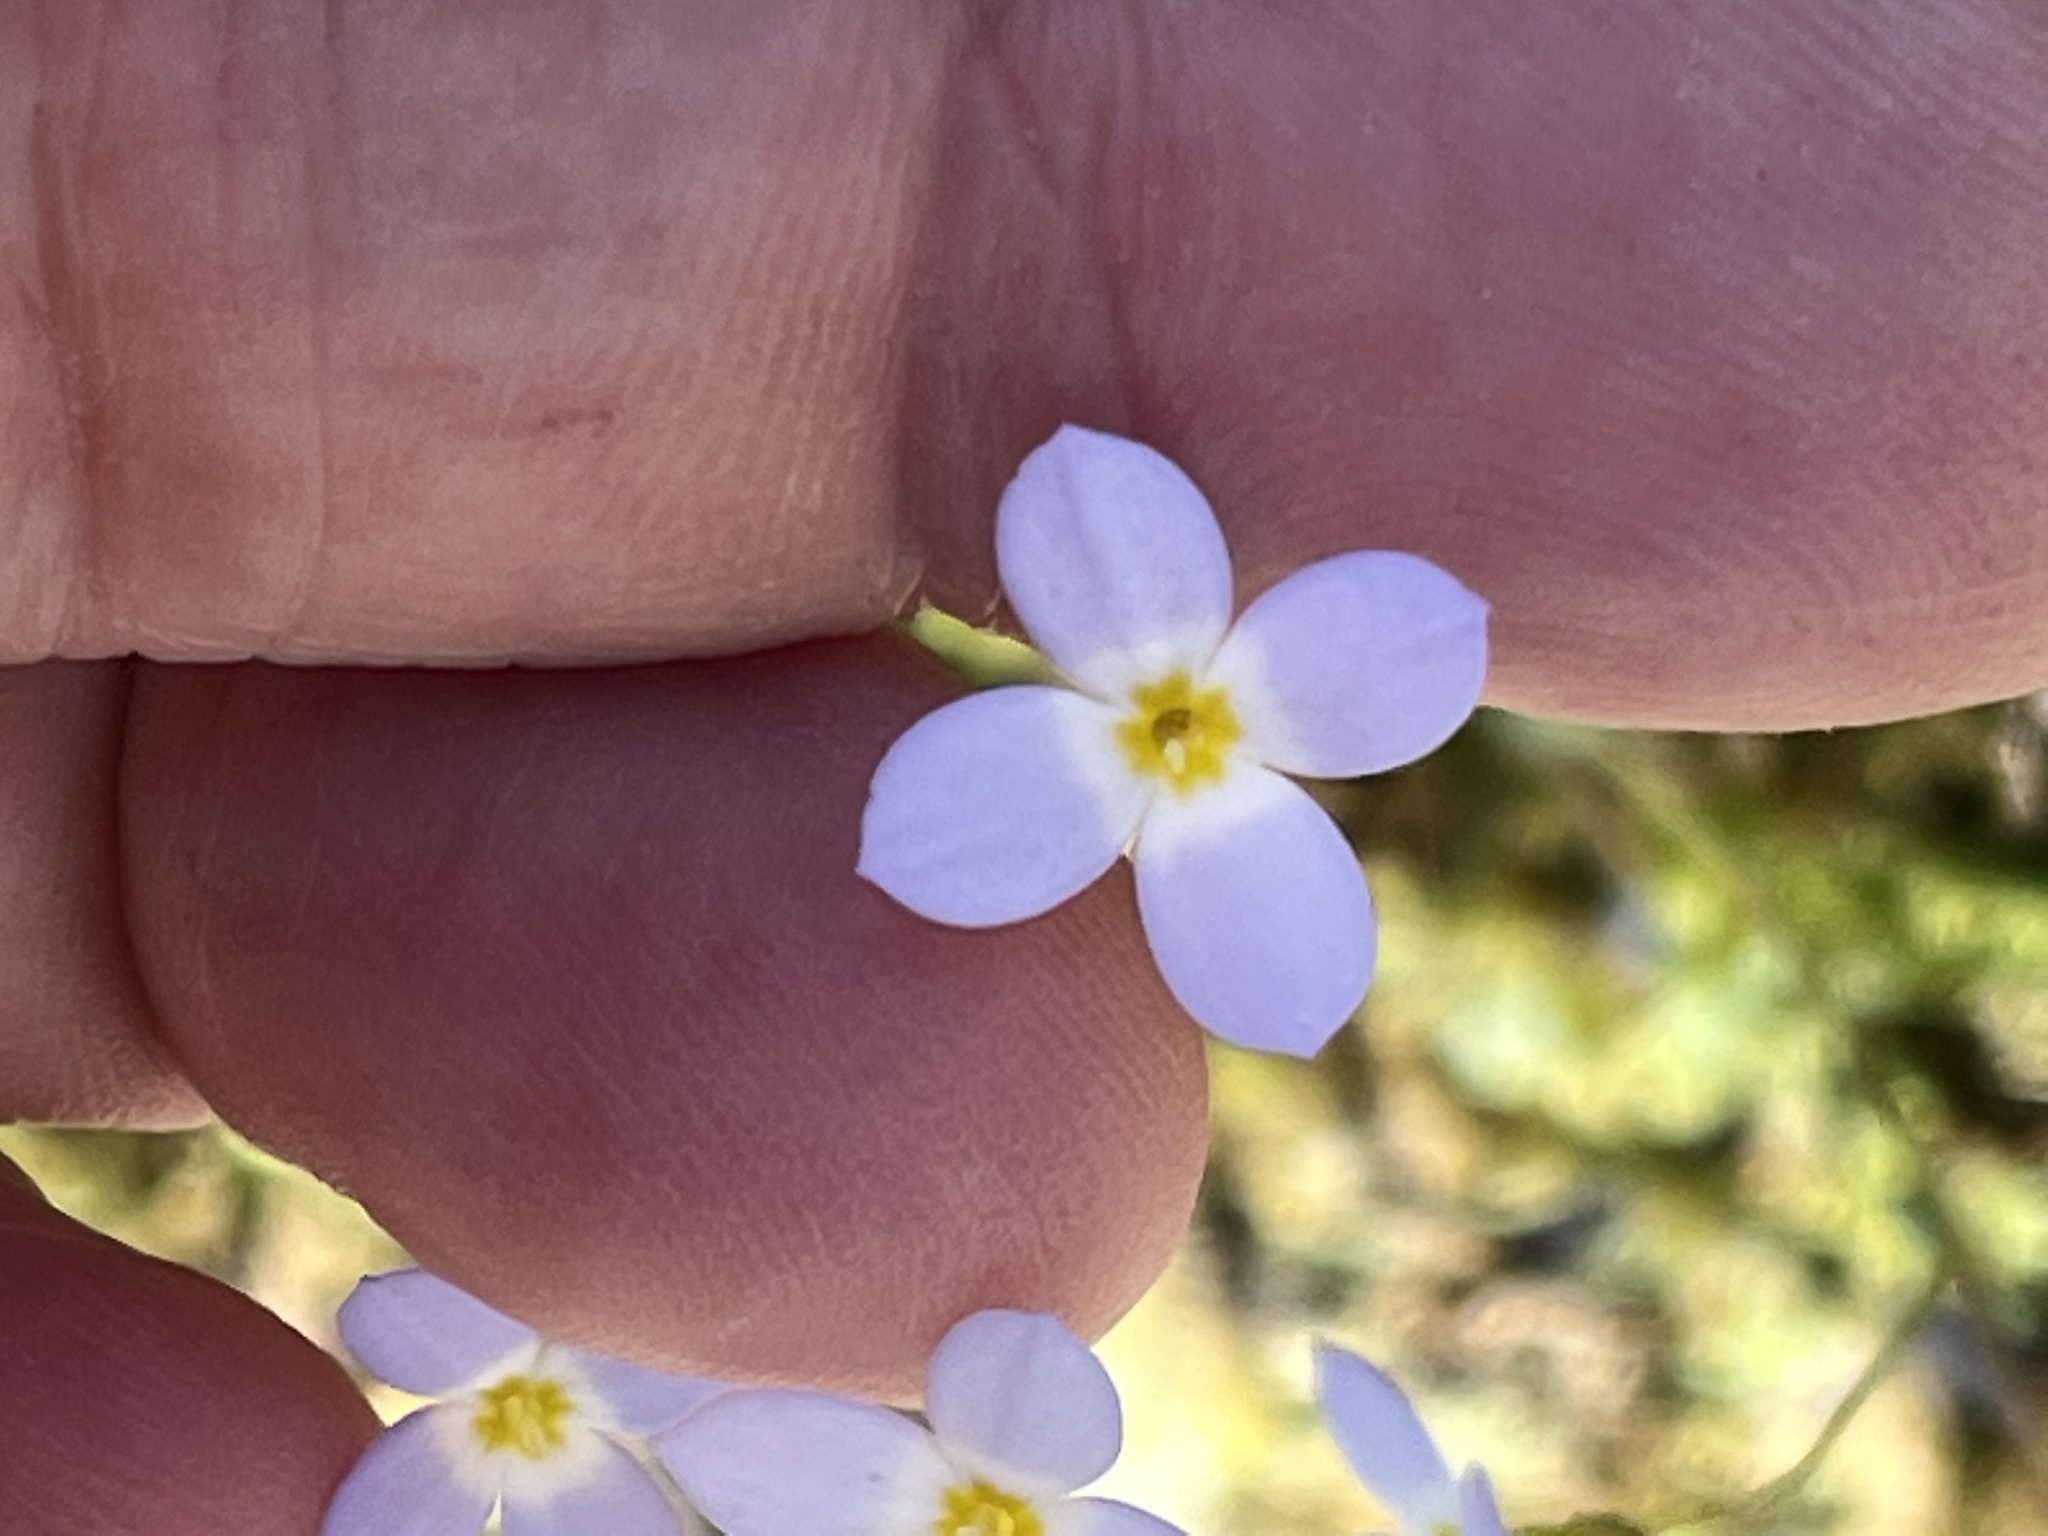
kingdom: Plantae
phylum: Tracheophyta
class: Magnoliopsida
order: Gentianales
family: Rubiaceae
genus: Houstonia
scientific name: Houstonia caerulea
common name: Bluets
